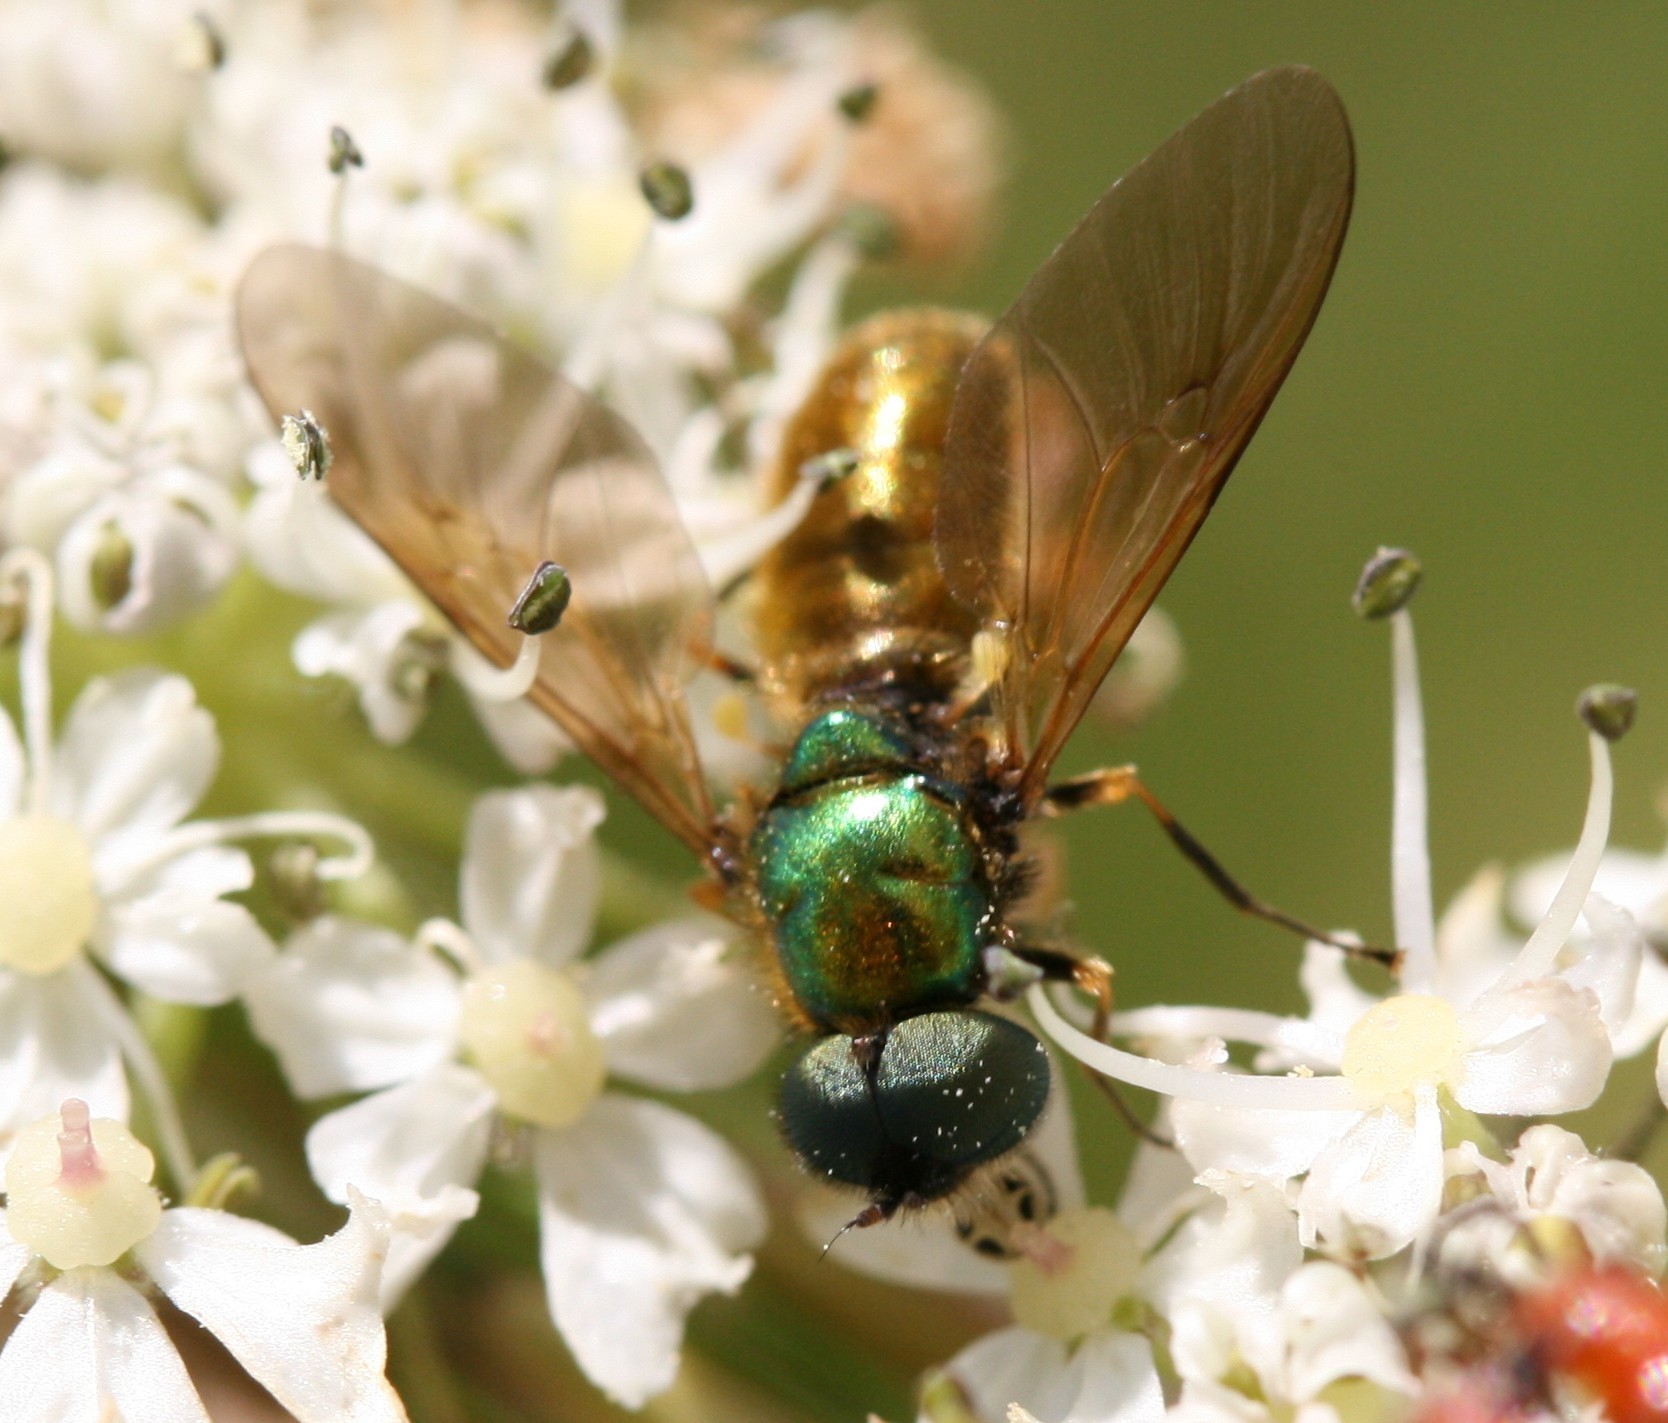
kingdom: Animalia
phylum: Arthropoda
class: Insecta
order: Diptera
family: Stratiomyidae
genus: Chloromyia
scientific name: Chloromyia formosa
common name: Soldier fly
